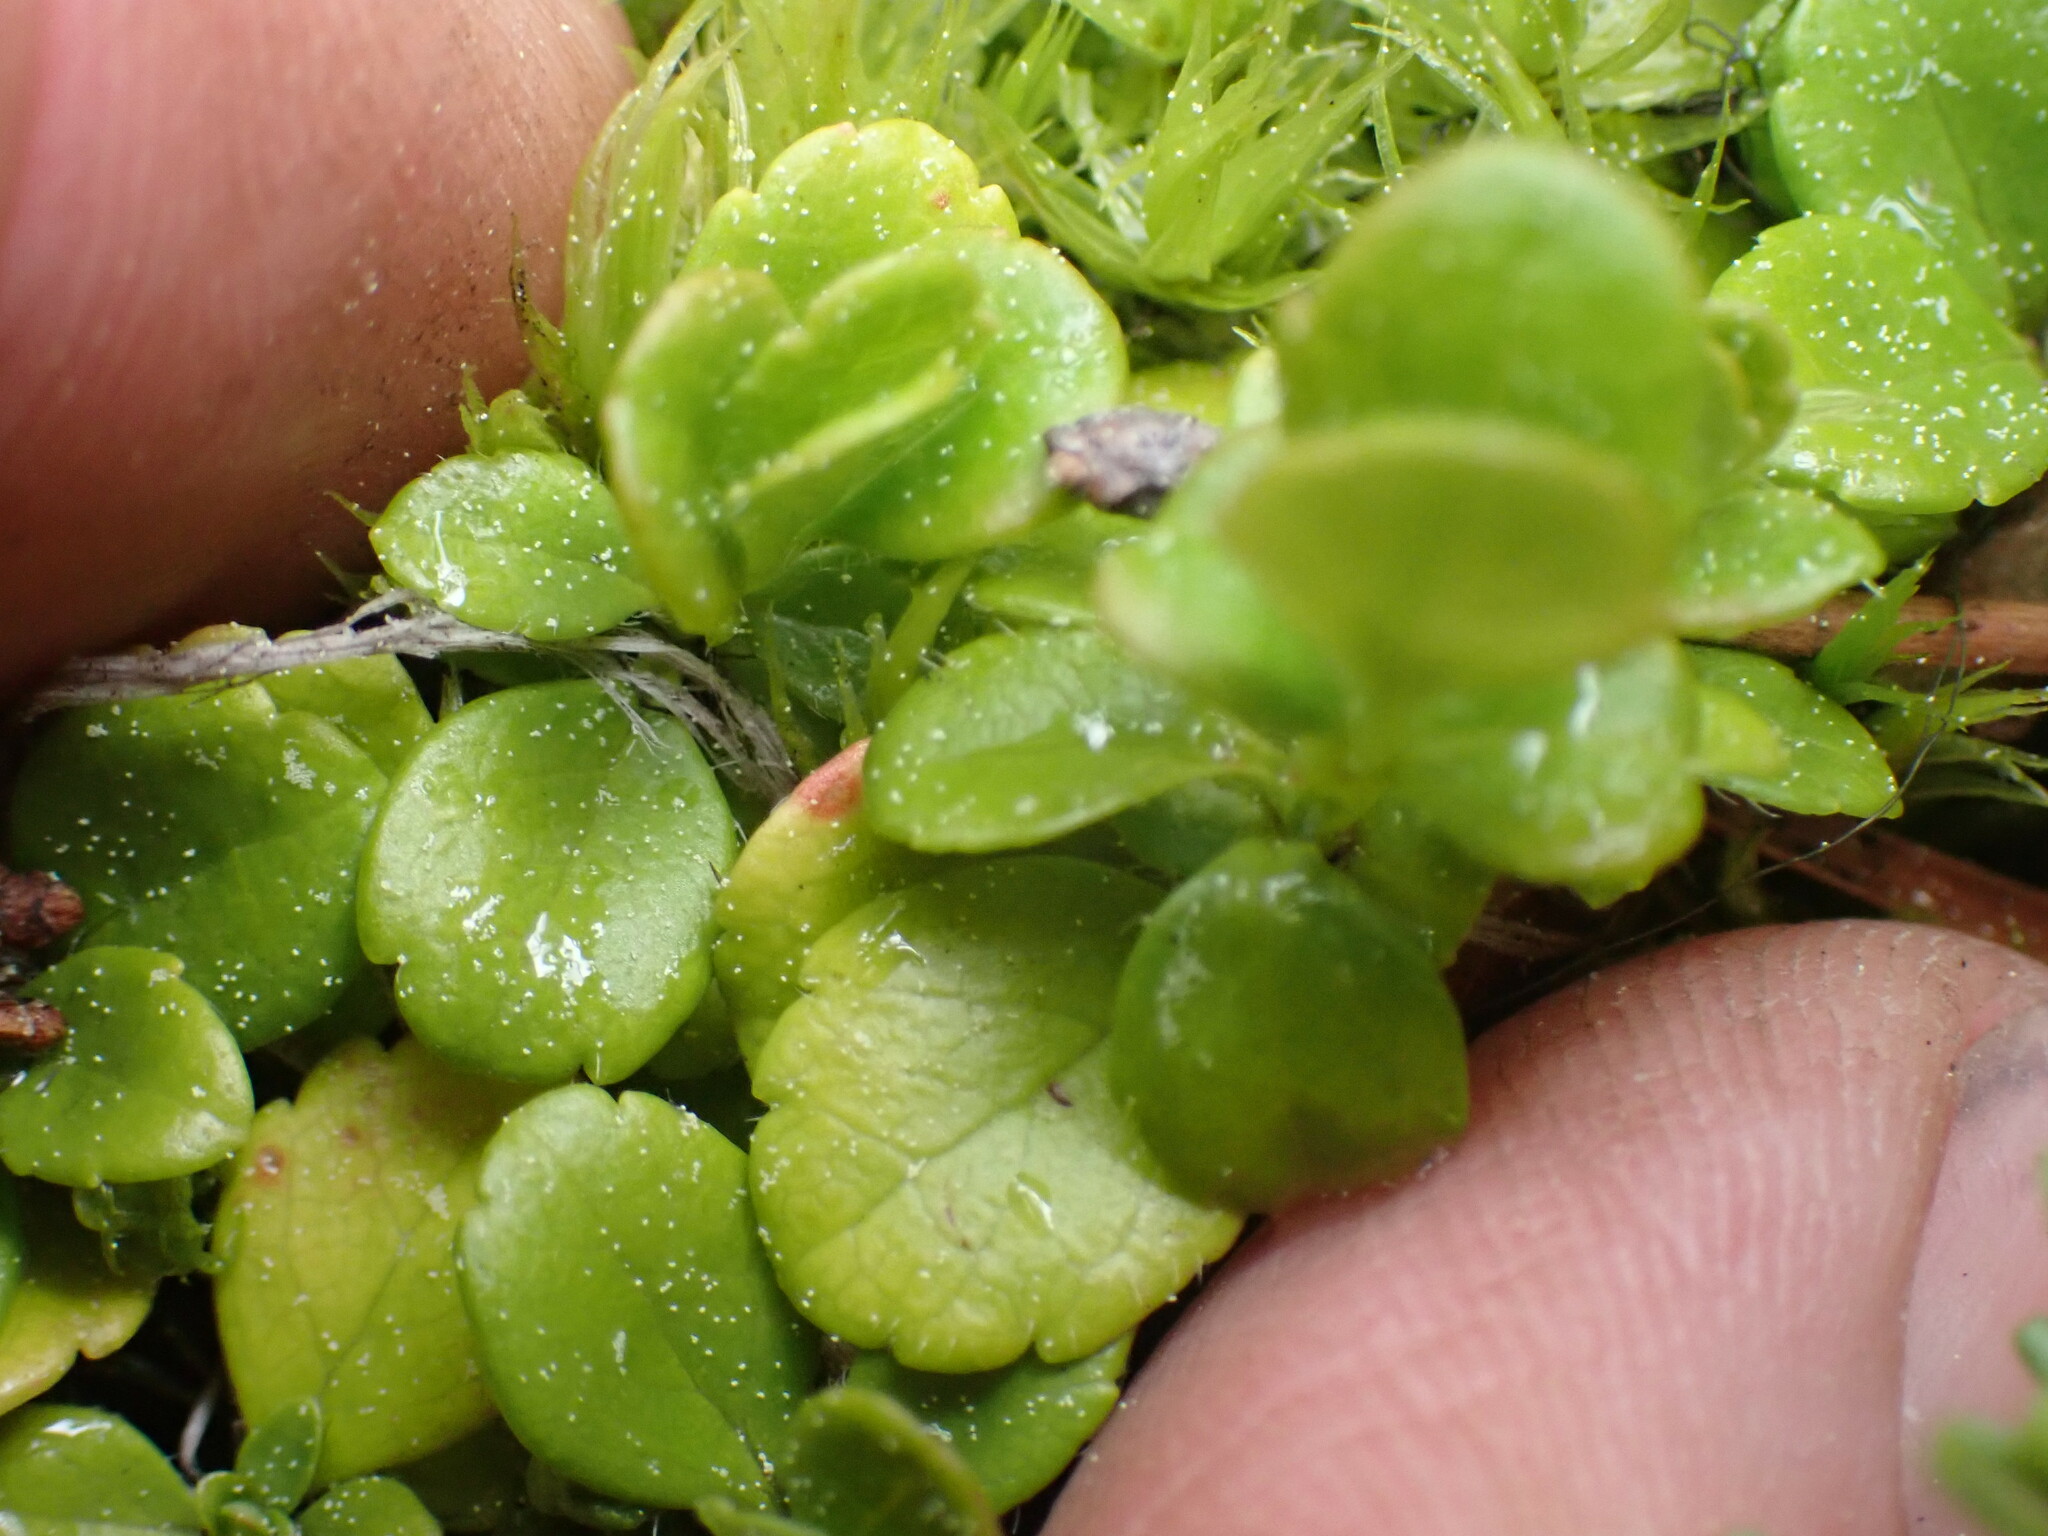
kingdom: Plantae
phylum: Tracheophyta
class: Magnoliopsida
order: Dipsacales
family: Caprifoliaceae
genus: Linnaea
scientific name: Linnaea borealis
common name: Twinflower
